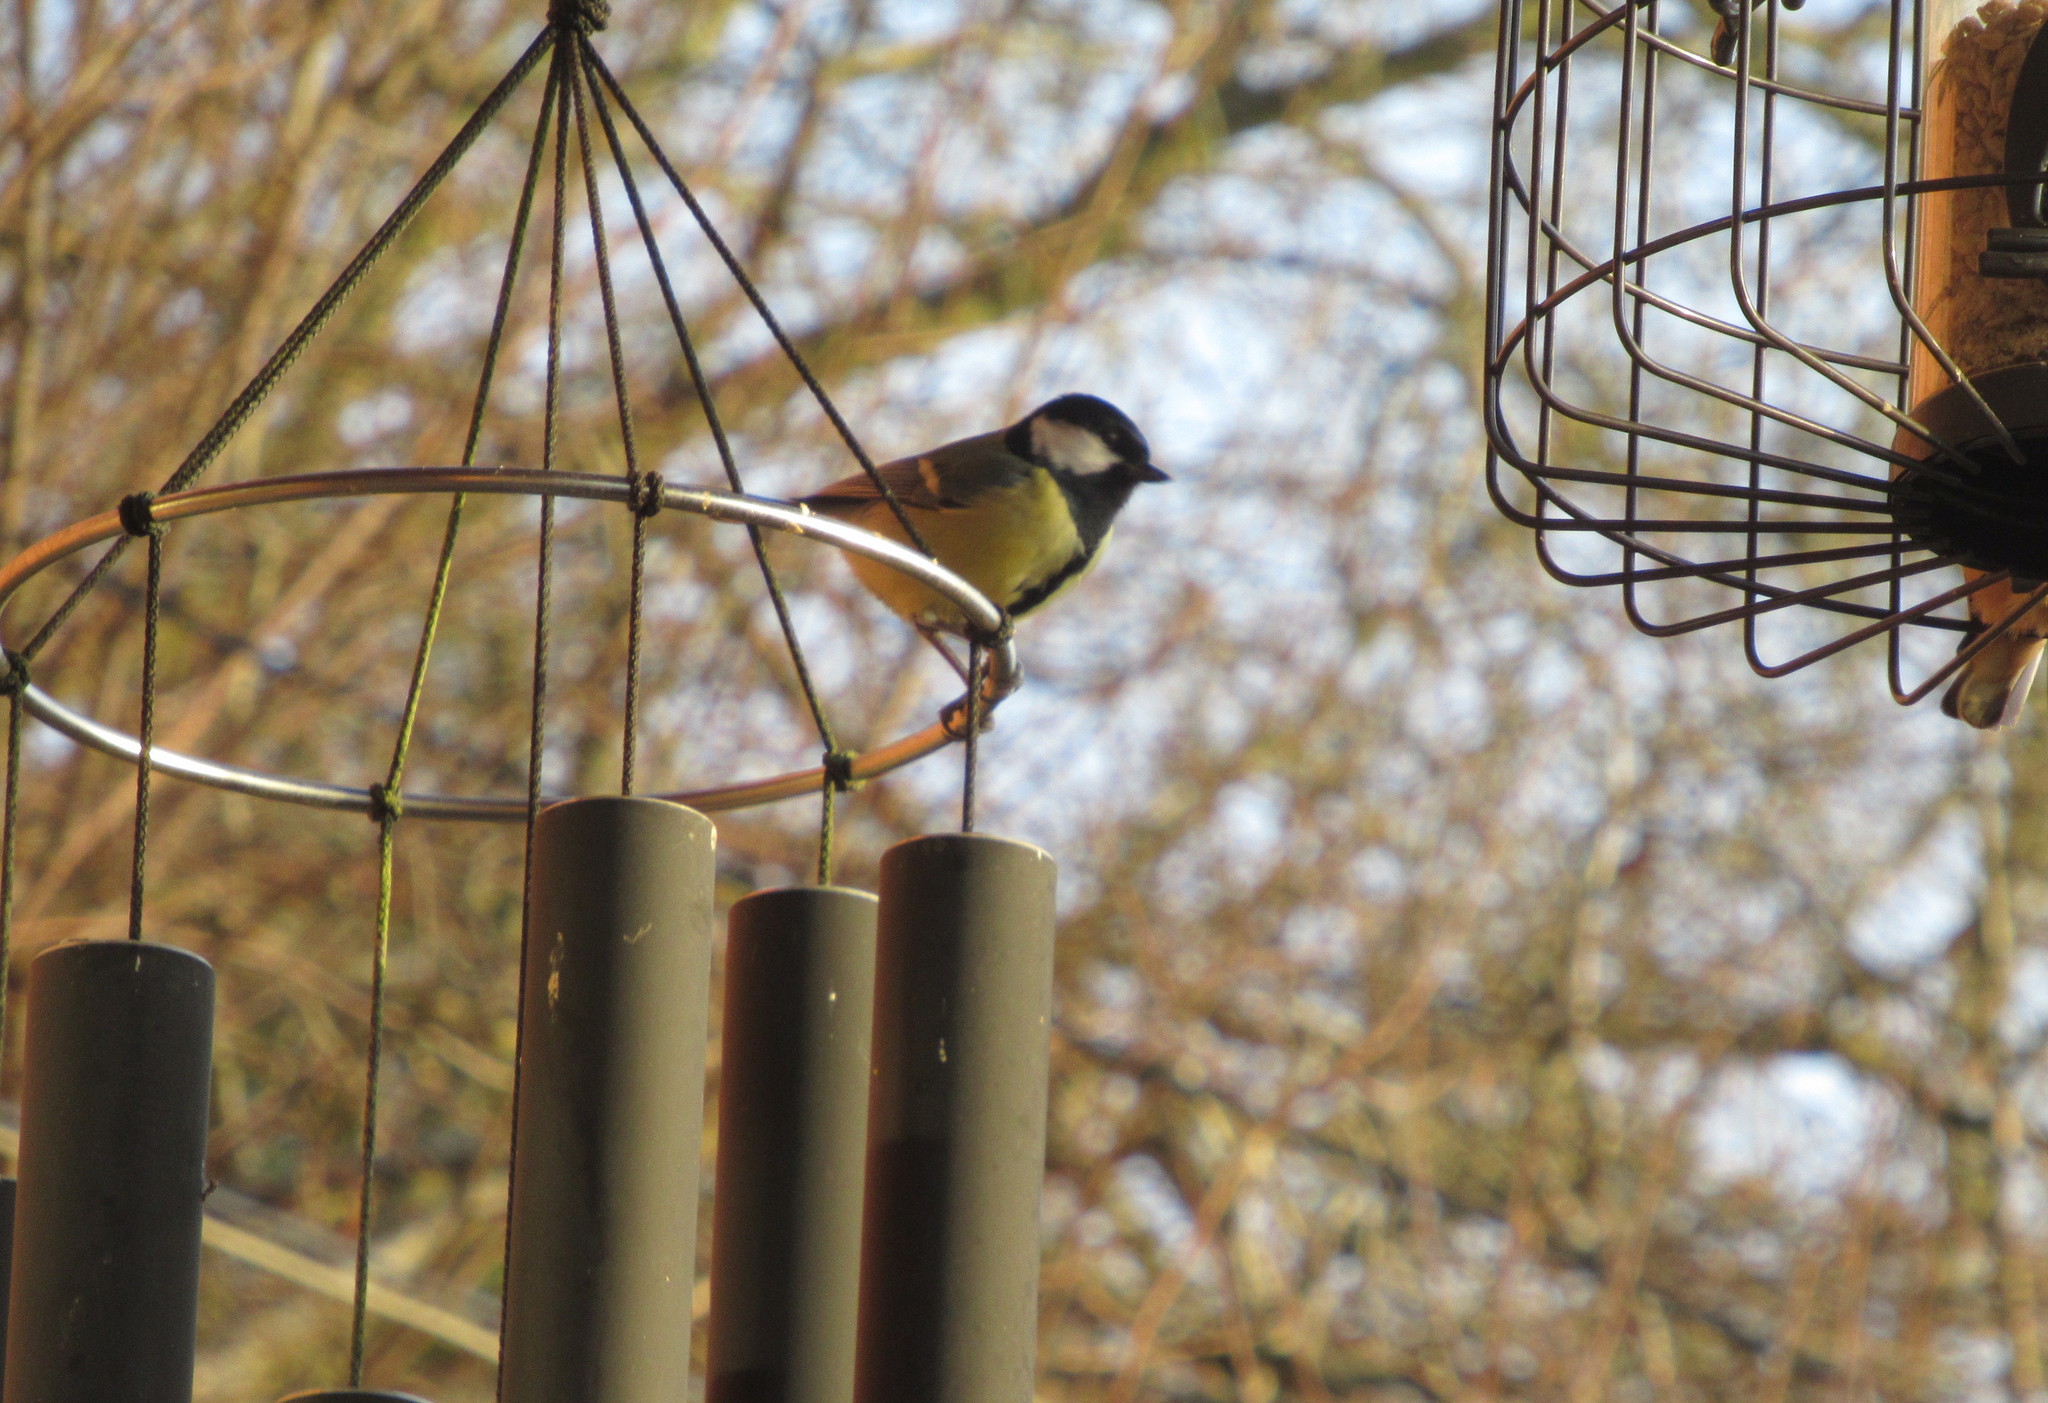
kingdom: Animalia
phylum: Chordata
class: Aves
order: Passeriformes
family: Paridae
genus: Parus
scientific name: Parus major
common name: Great tit
